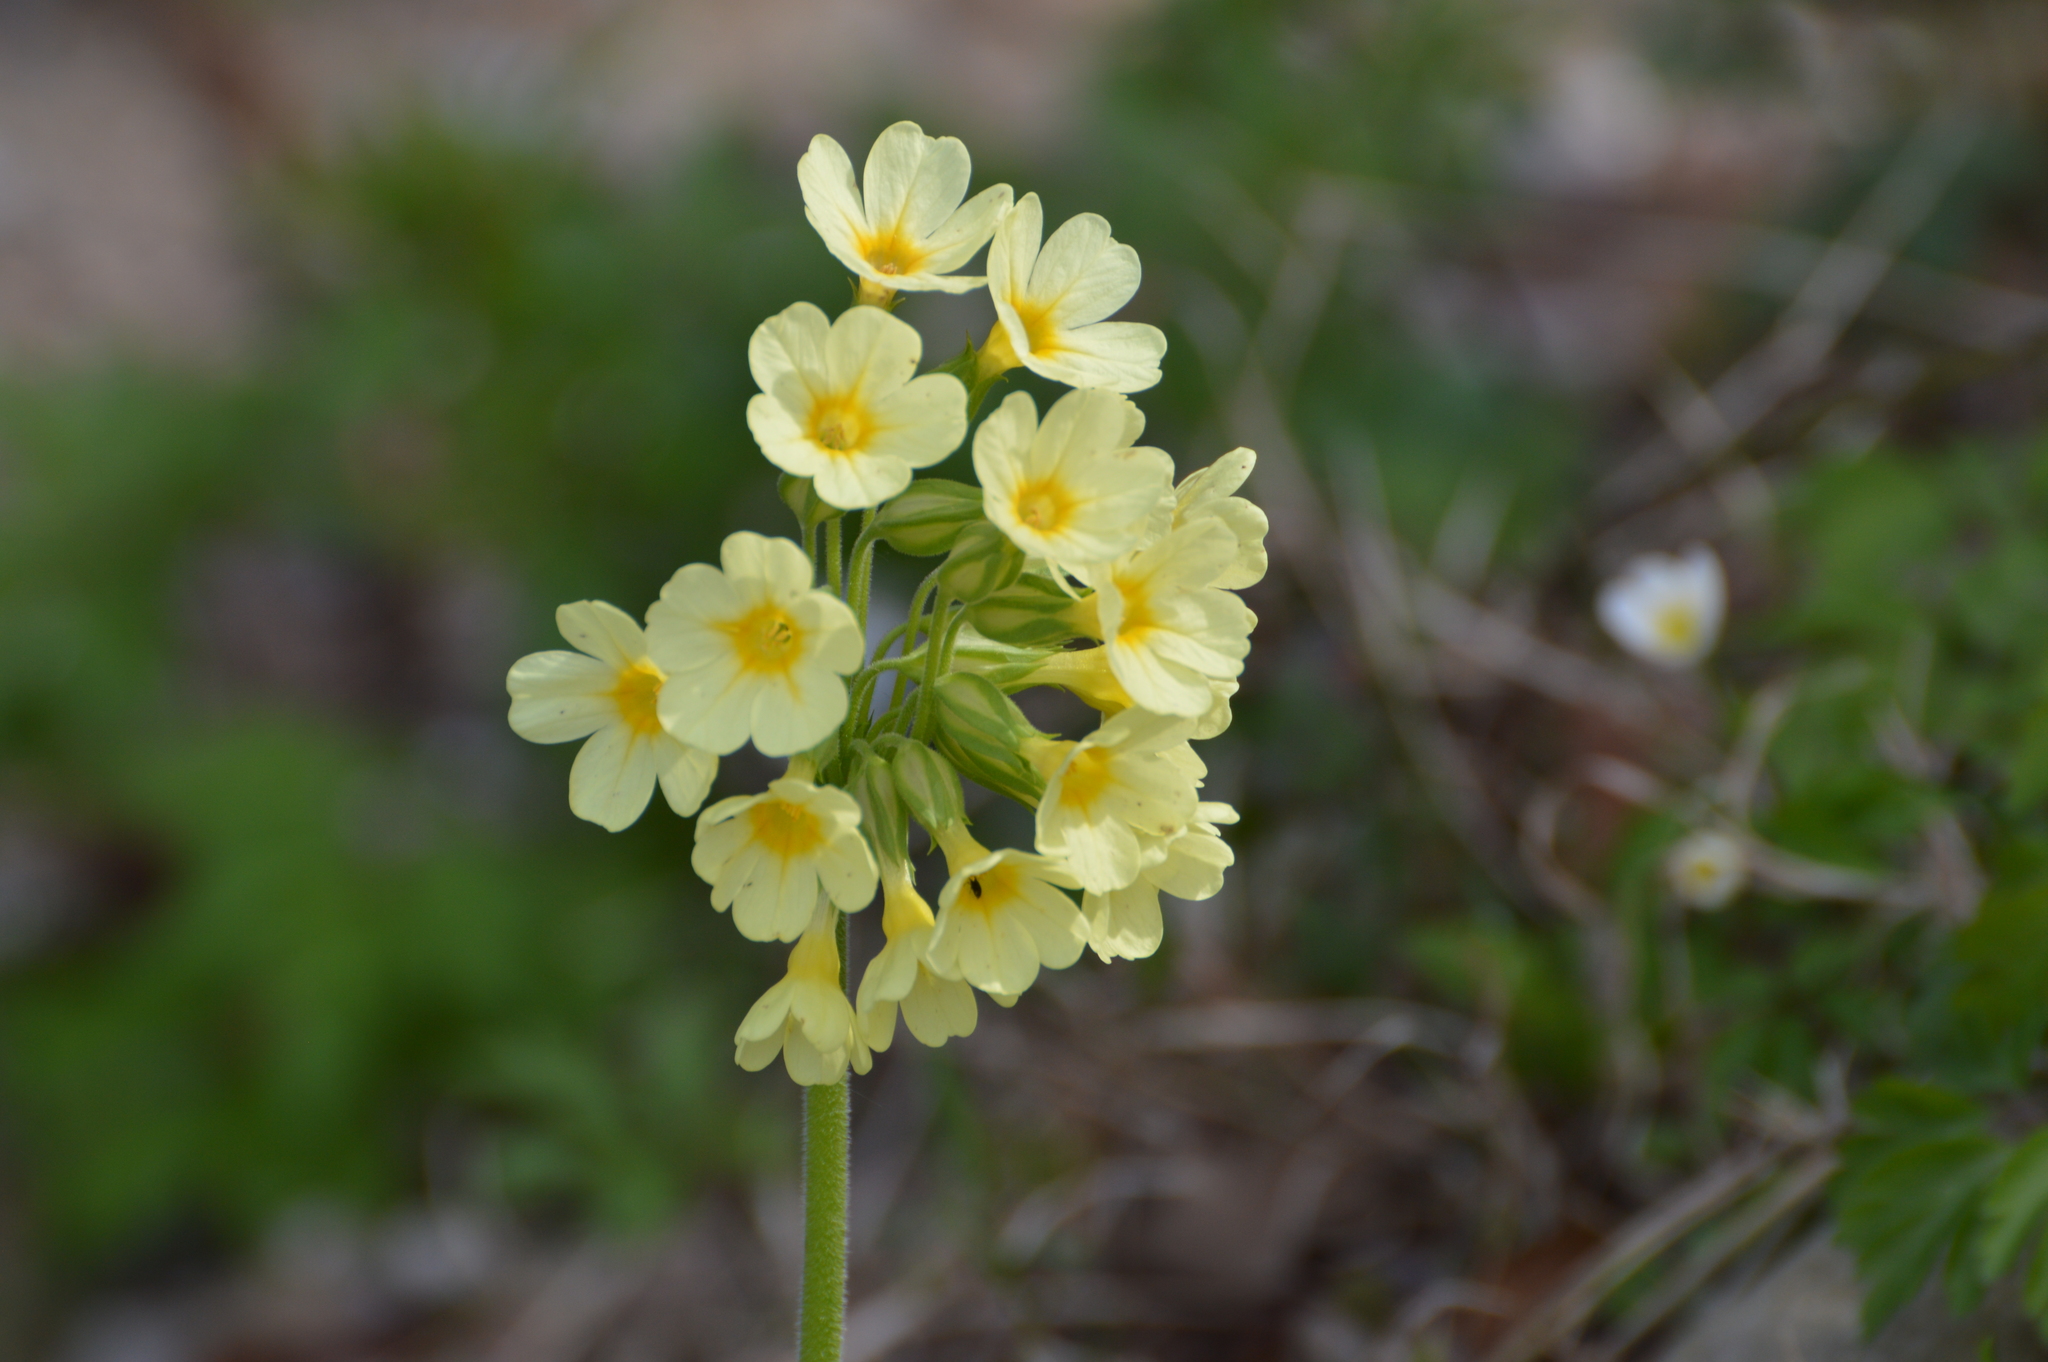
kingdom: Plantae
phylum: Tracheophyta
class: Magnoliopsida
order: Ericales
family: Primulaceae
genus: Primula
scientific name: Primula elatior
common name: Oxlip
